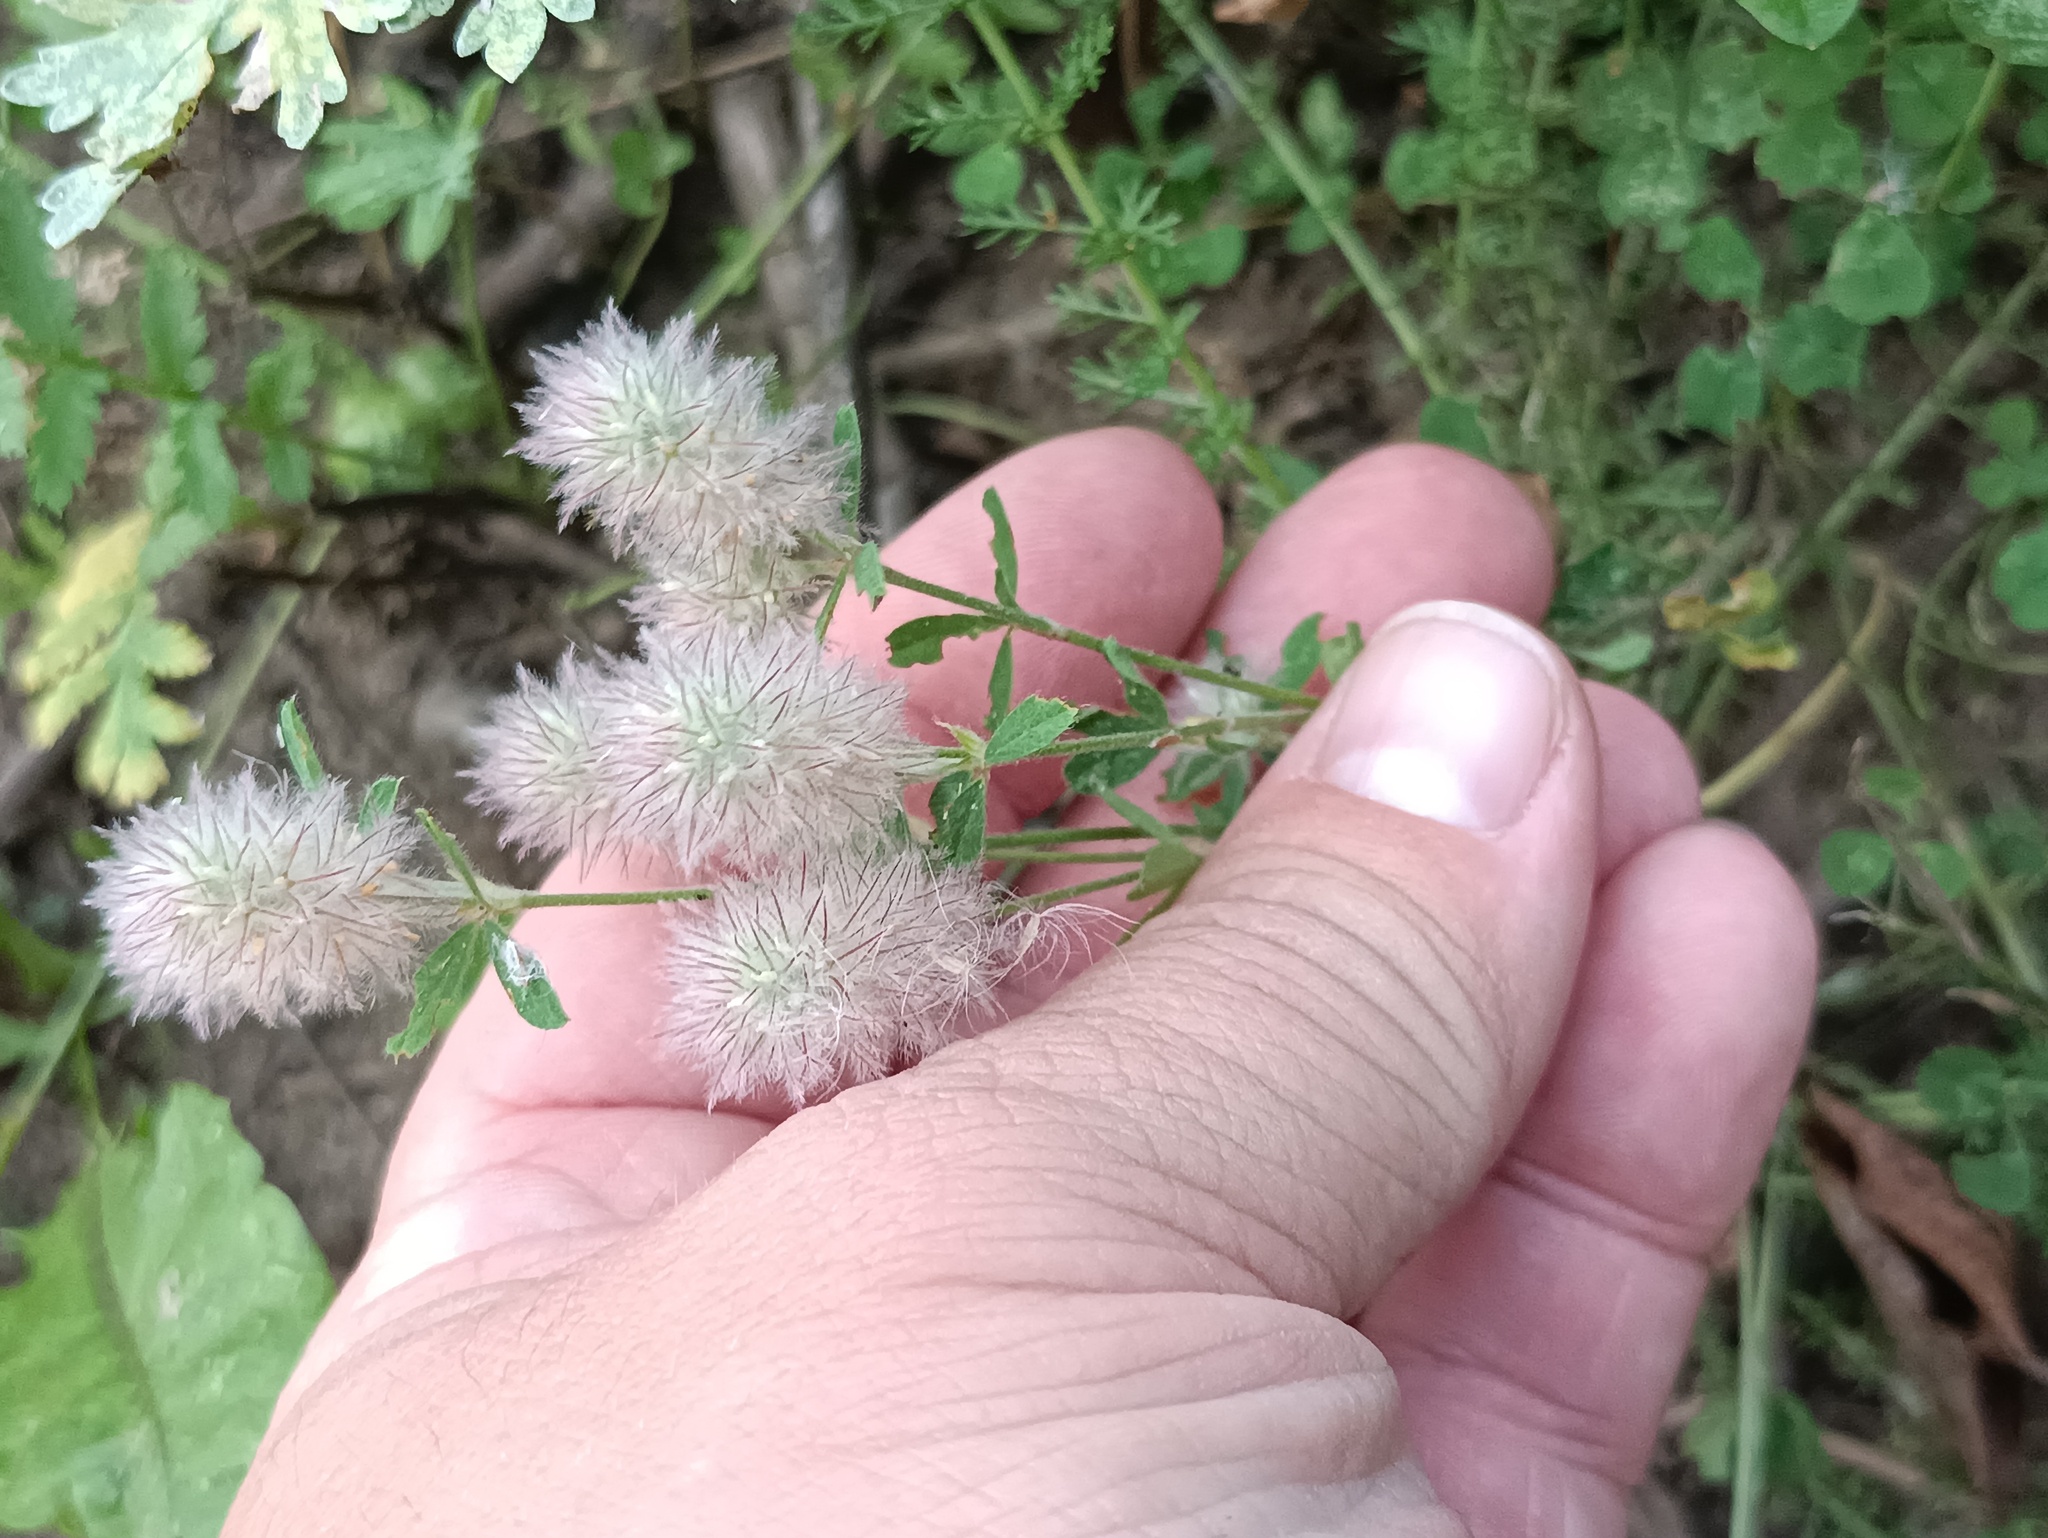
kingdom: Plantae
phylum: Tracheophyta
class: Magnoliopsida
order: Fabales
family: Fabaceae
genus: Trifolium
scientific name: Trifolium arvense
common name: Hare's-foot clover
